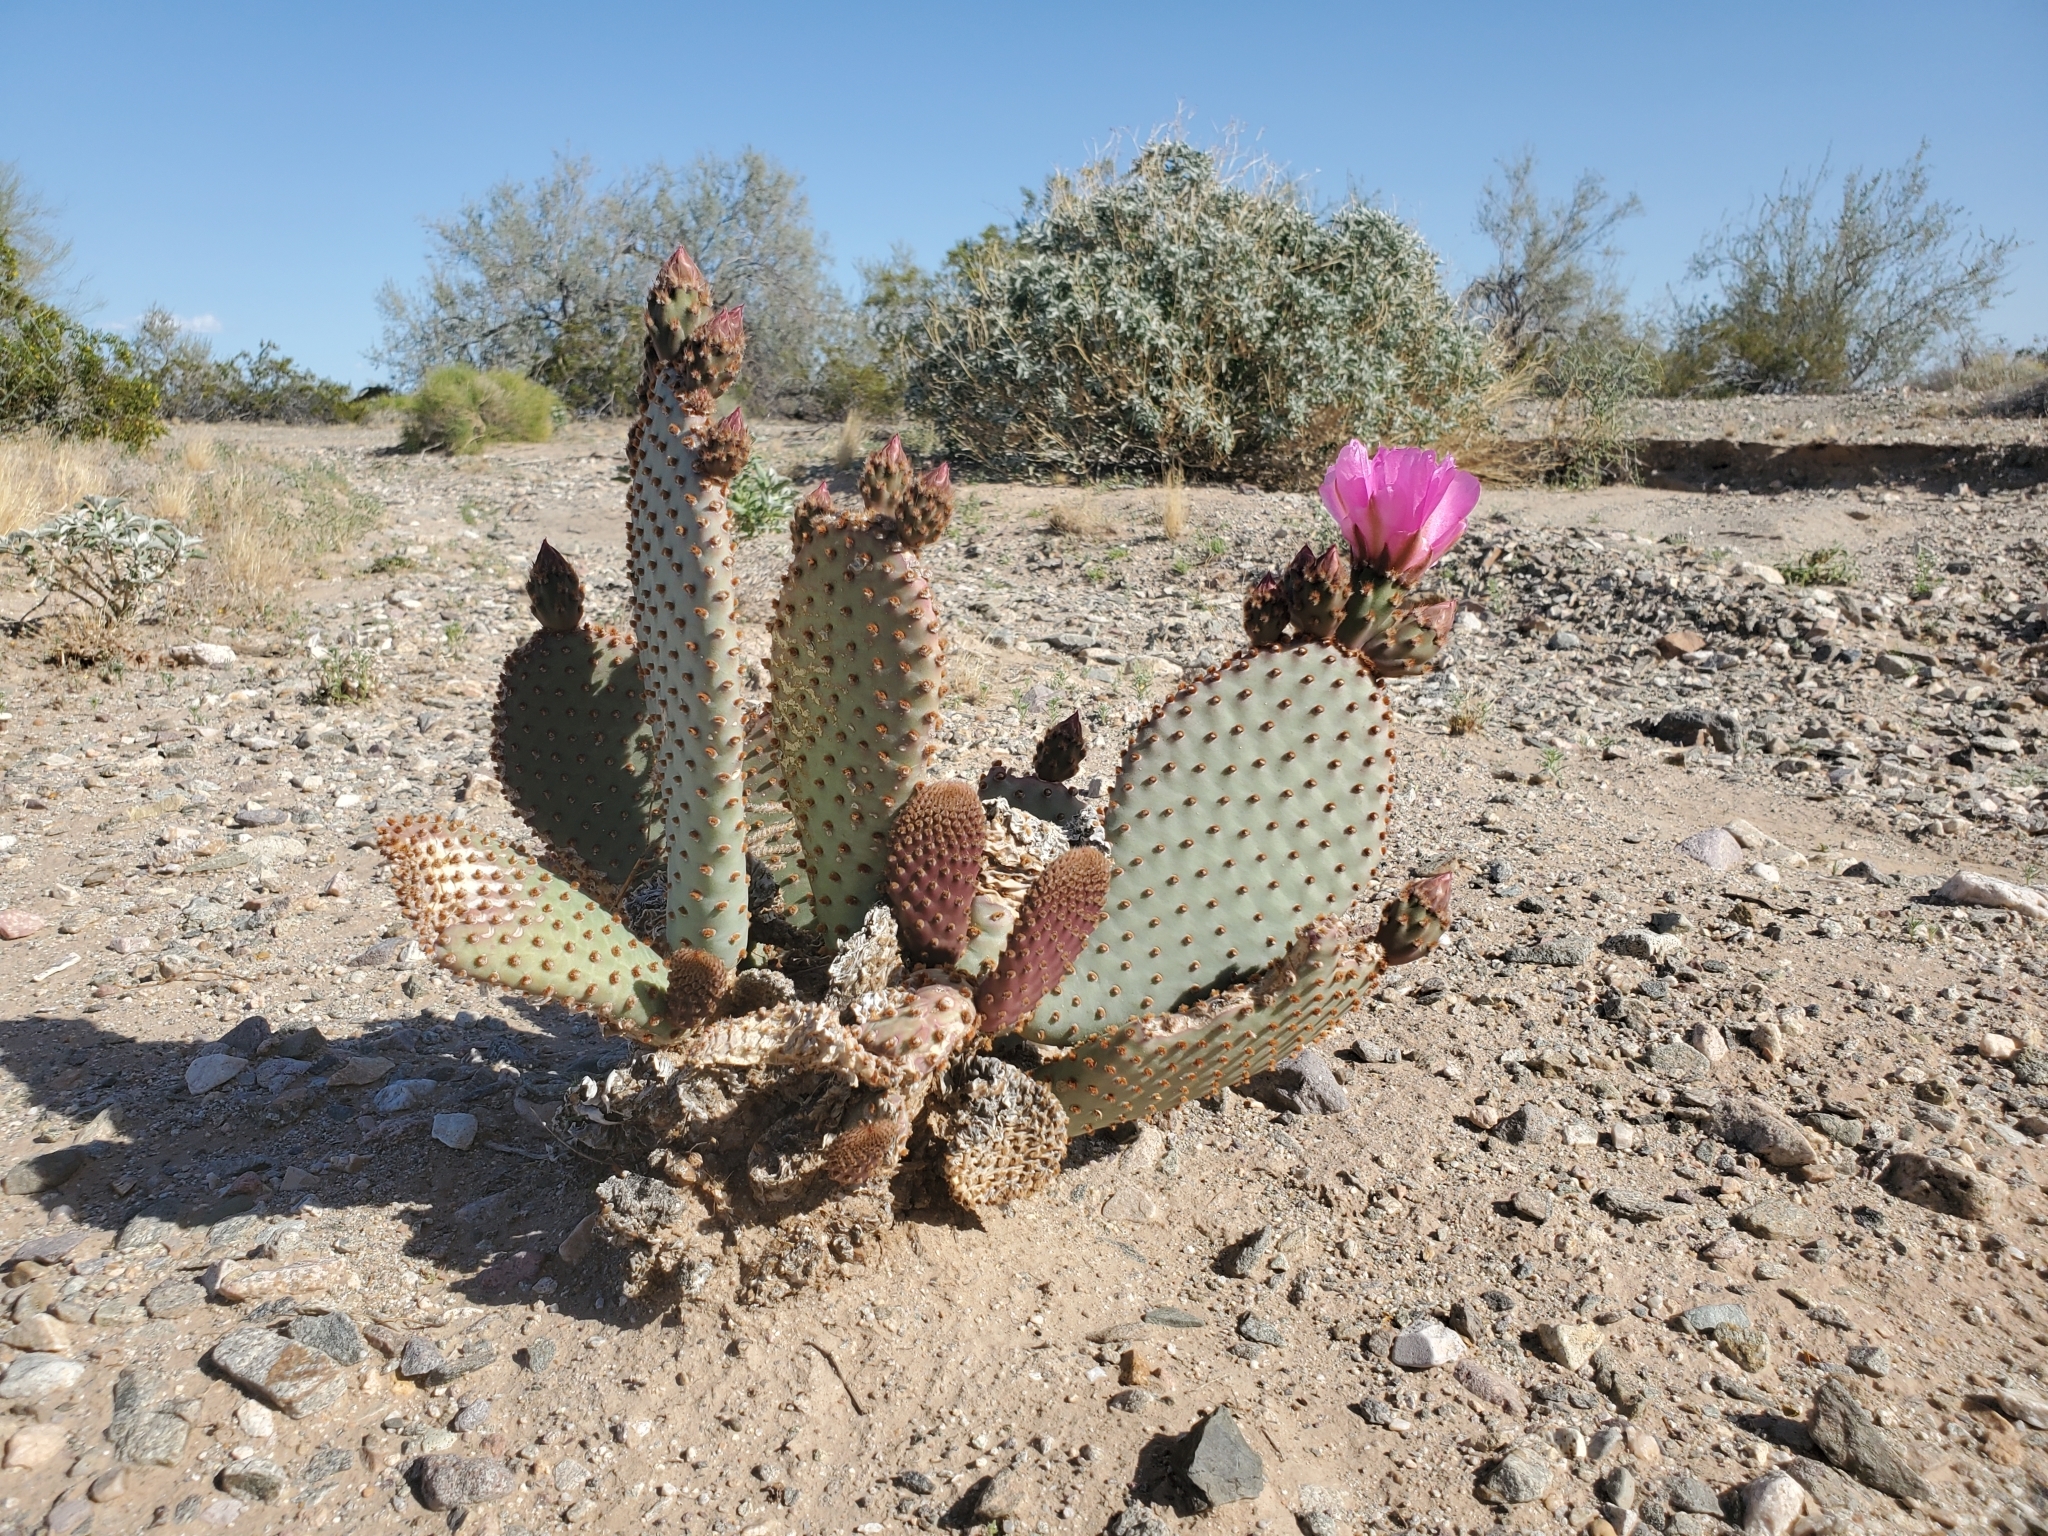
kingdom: Plantae
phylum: Tracheophyta
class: Magnoliopsida
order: Caryophyllales
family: Cactaceae
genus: Opuntia
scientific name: Opuntia basilaris
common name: Beavertail prickly-pear
